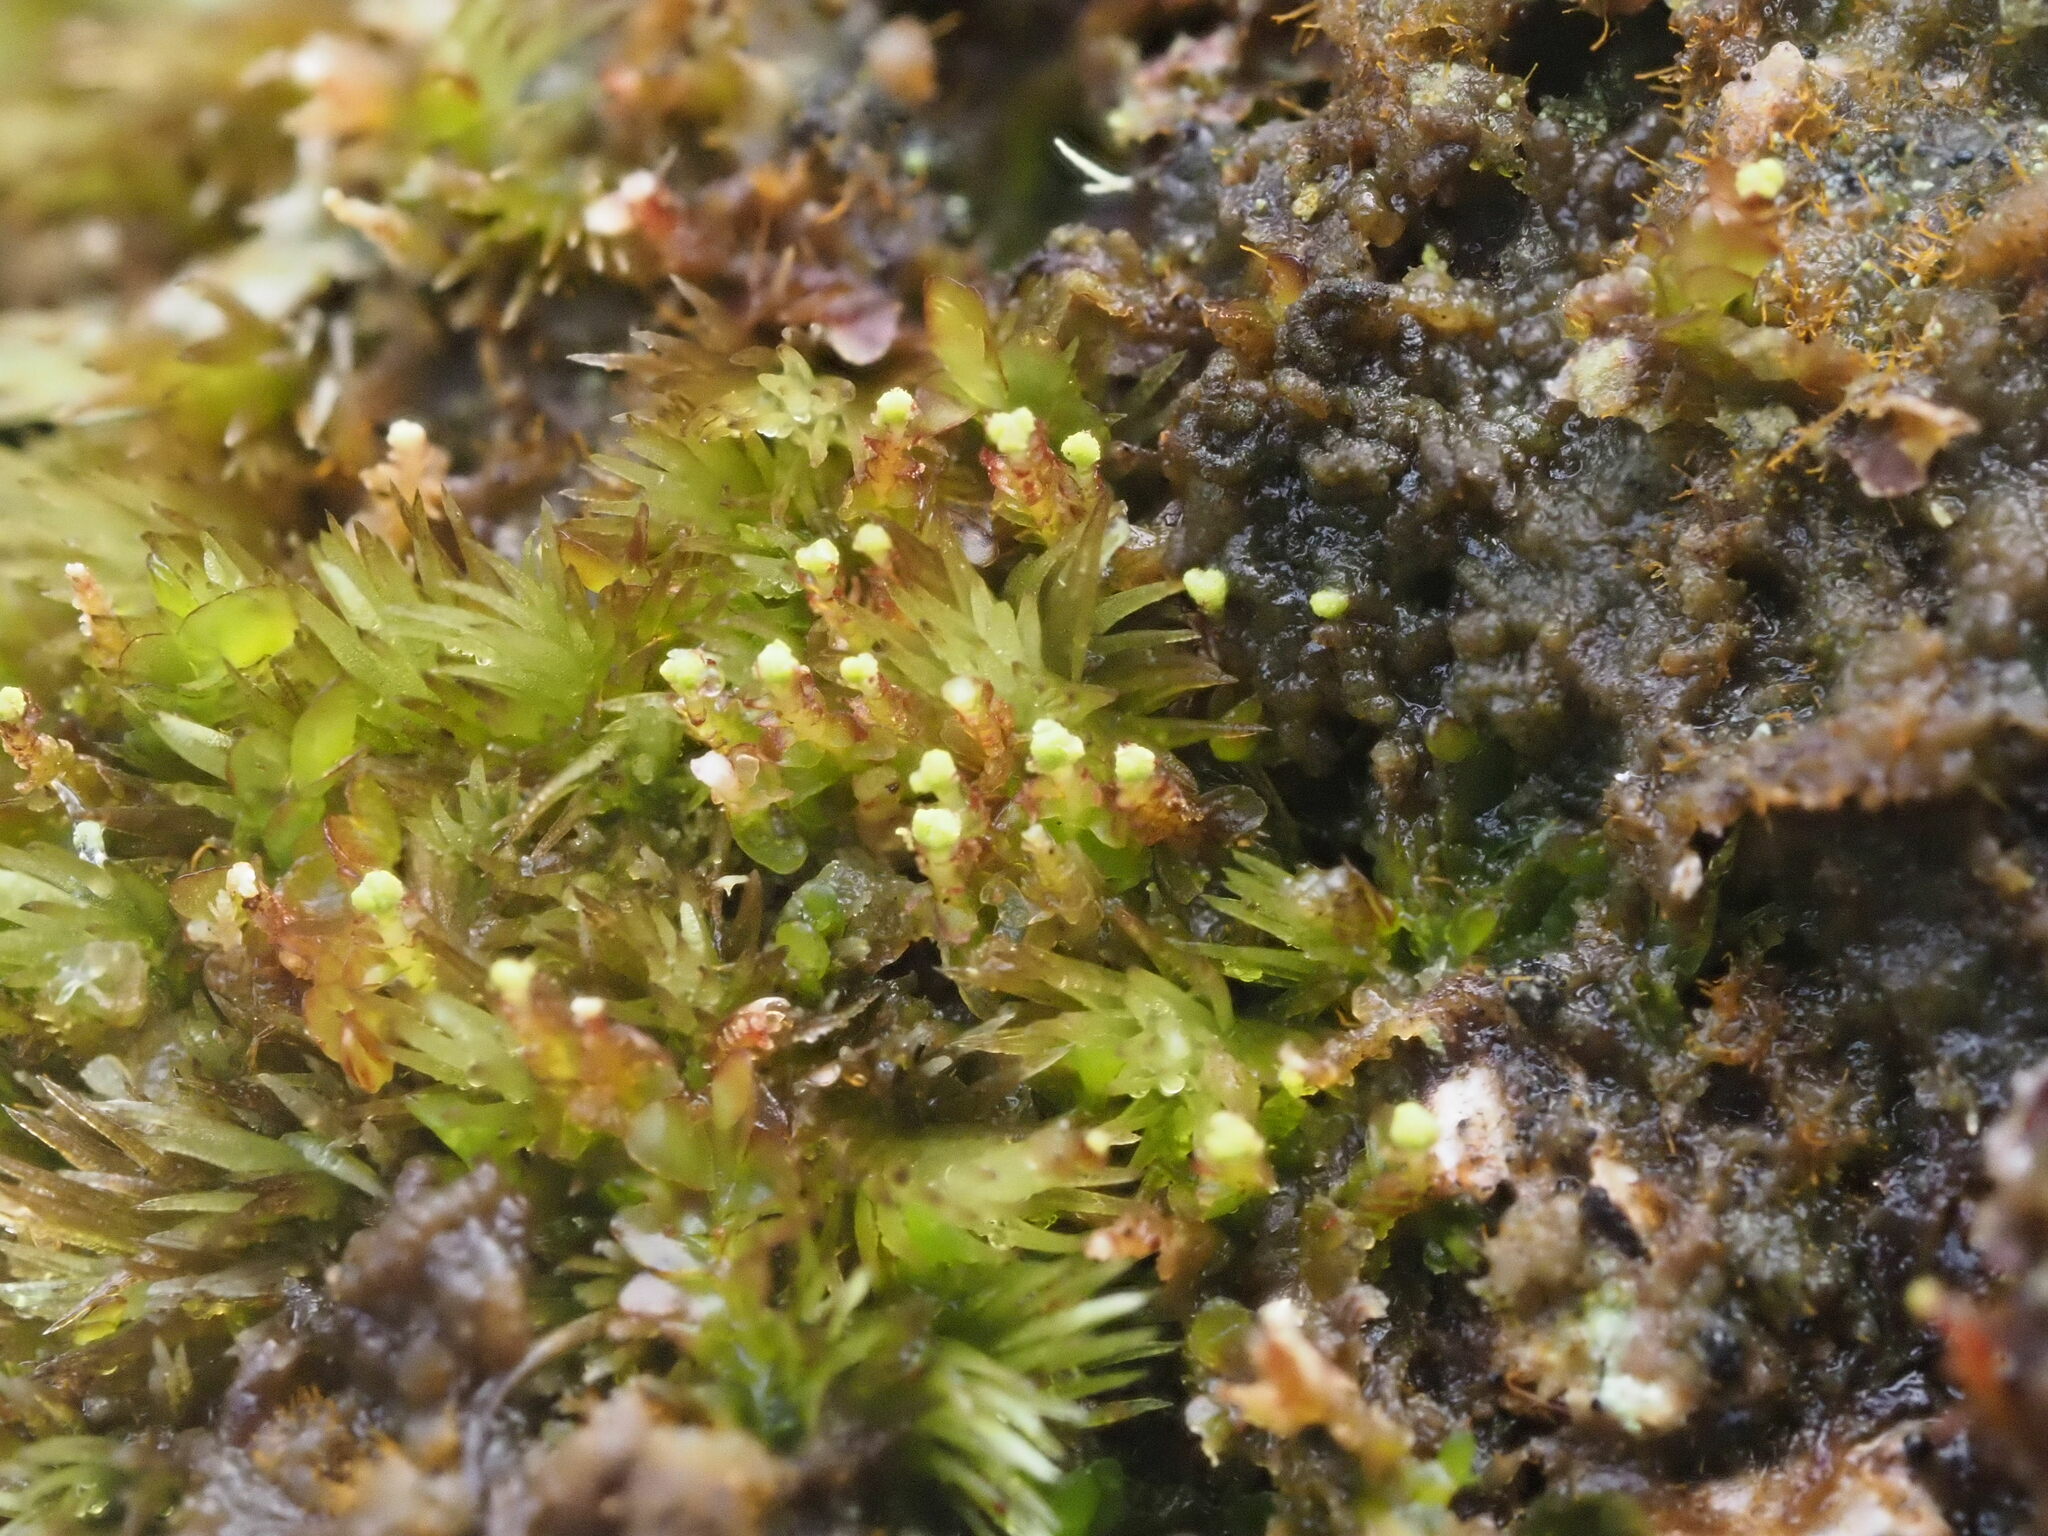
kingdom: Plantae
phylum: Marchantiophyta
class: Jungermanniopsida
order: Jungermanniales
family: Cephaloziaceae
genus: Odontoschisma
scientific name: Odontoschisma denudatum
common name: Matchstick flapwort
